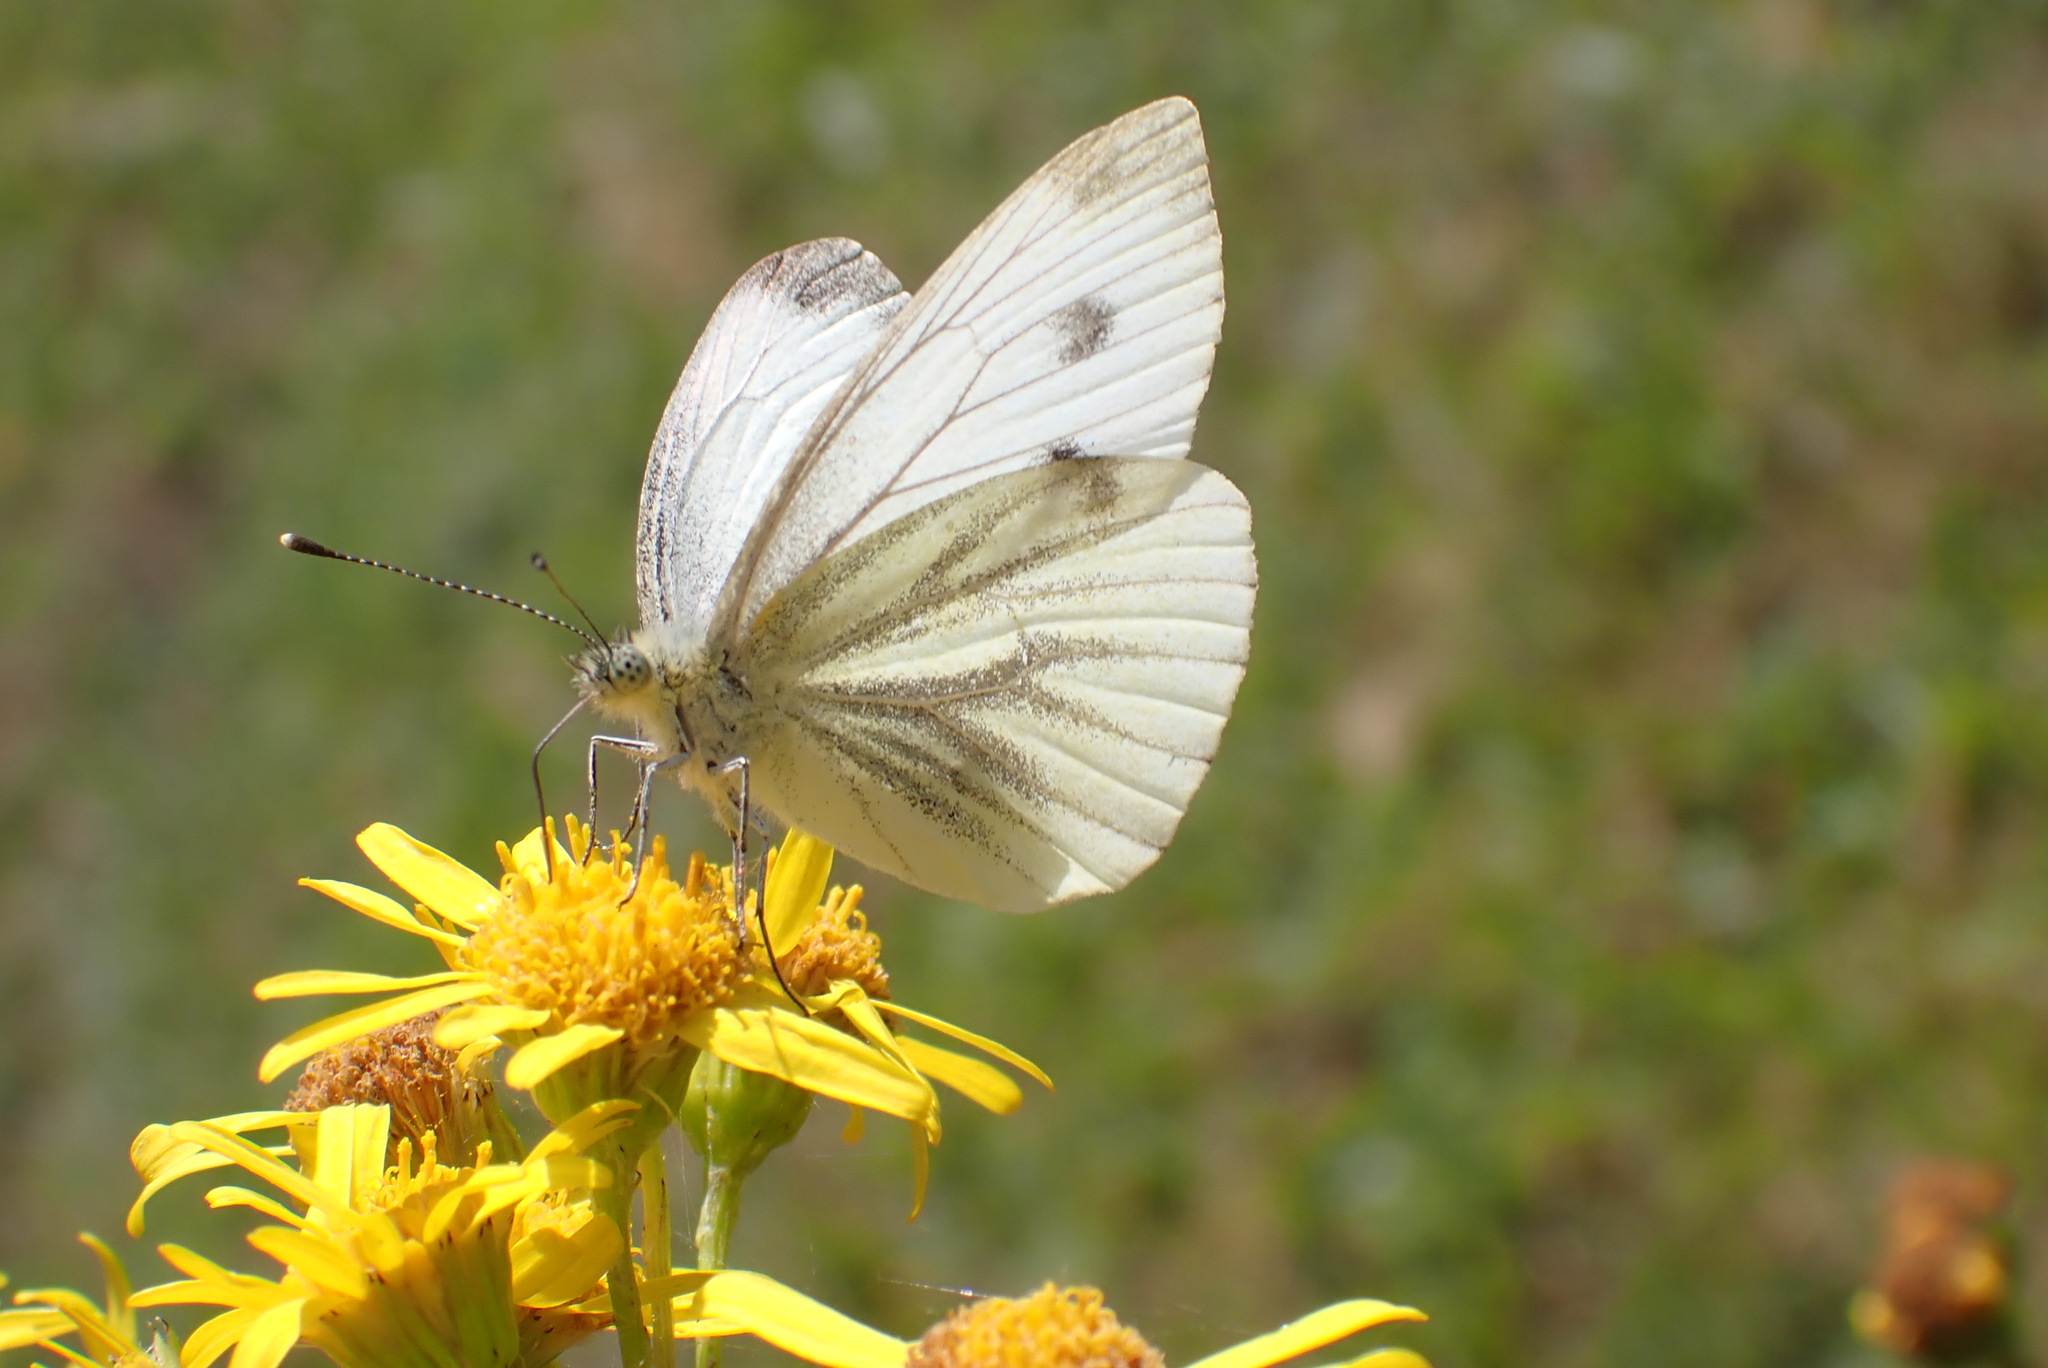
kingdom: Animalia
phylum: Arthropoda
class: Insecta
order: Lepidoptera
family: Pieridae
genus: Pieris
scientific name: Pieris napi
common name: Green-veined white
